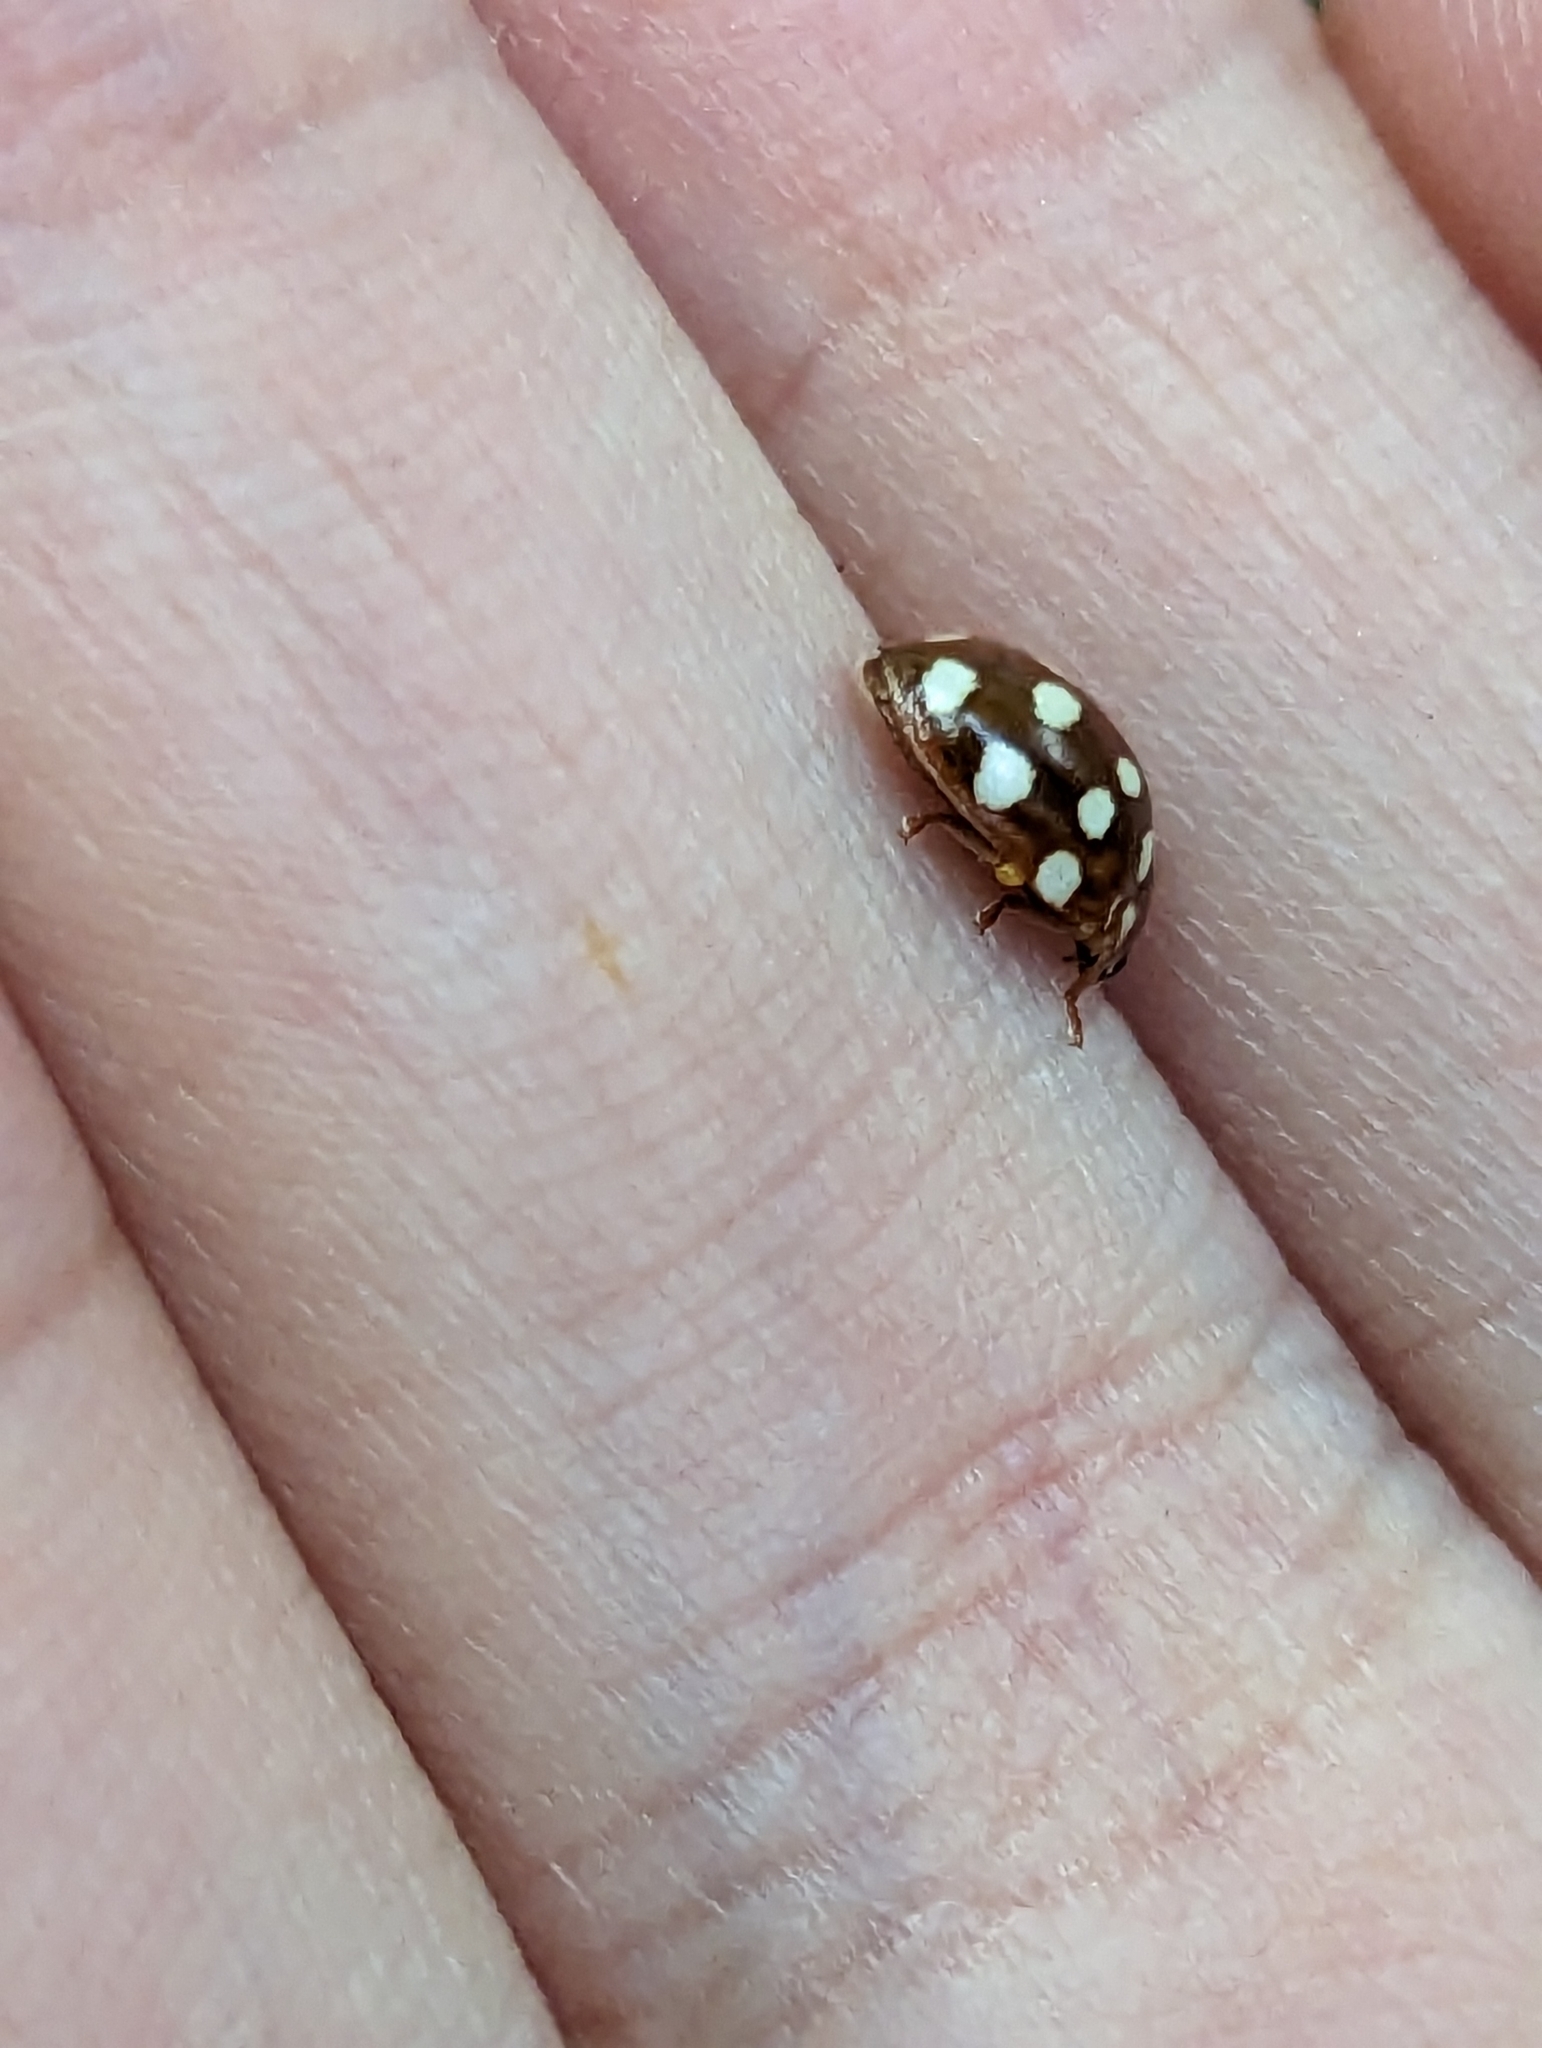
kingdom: Animalia
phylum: Arthropoda
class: Insecta
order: Coleoptera
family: Coccinellidae
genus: Calvia
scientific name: Calvia quatuordecimguttata
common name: Cream-spot ladybird
